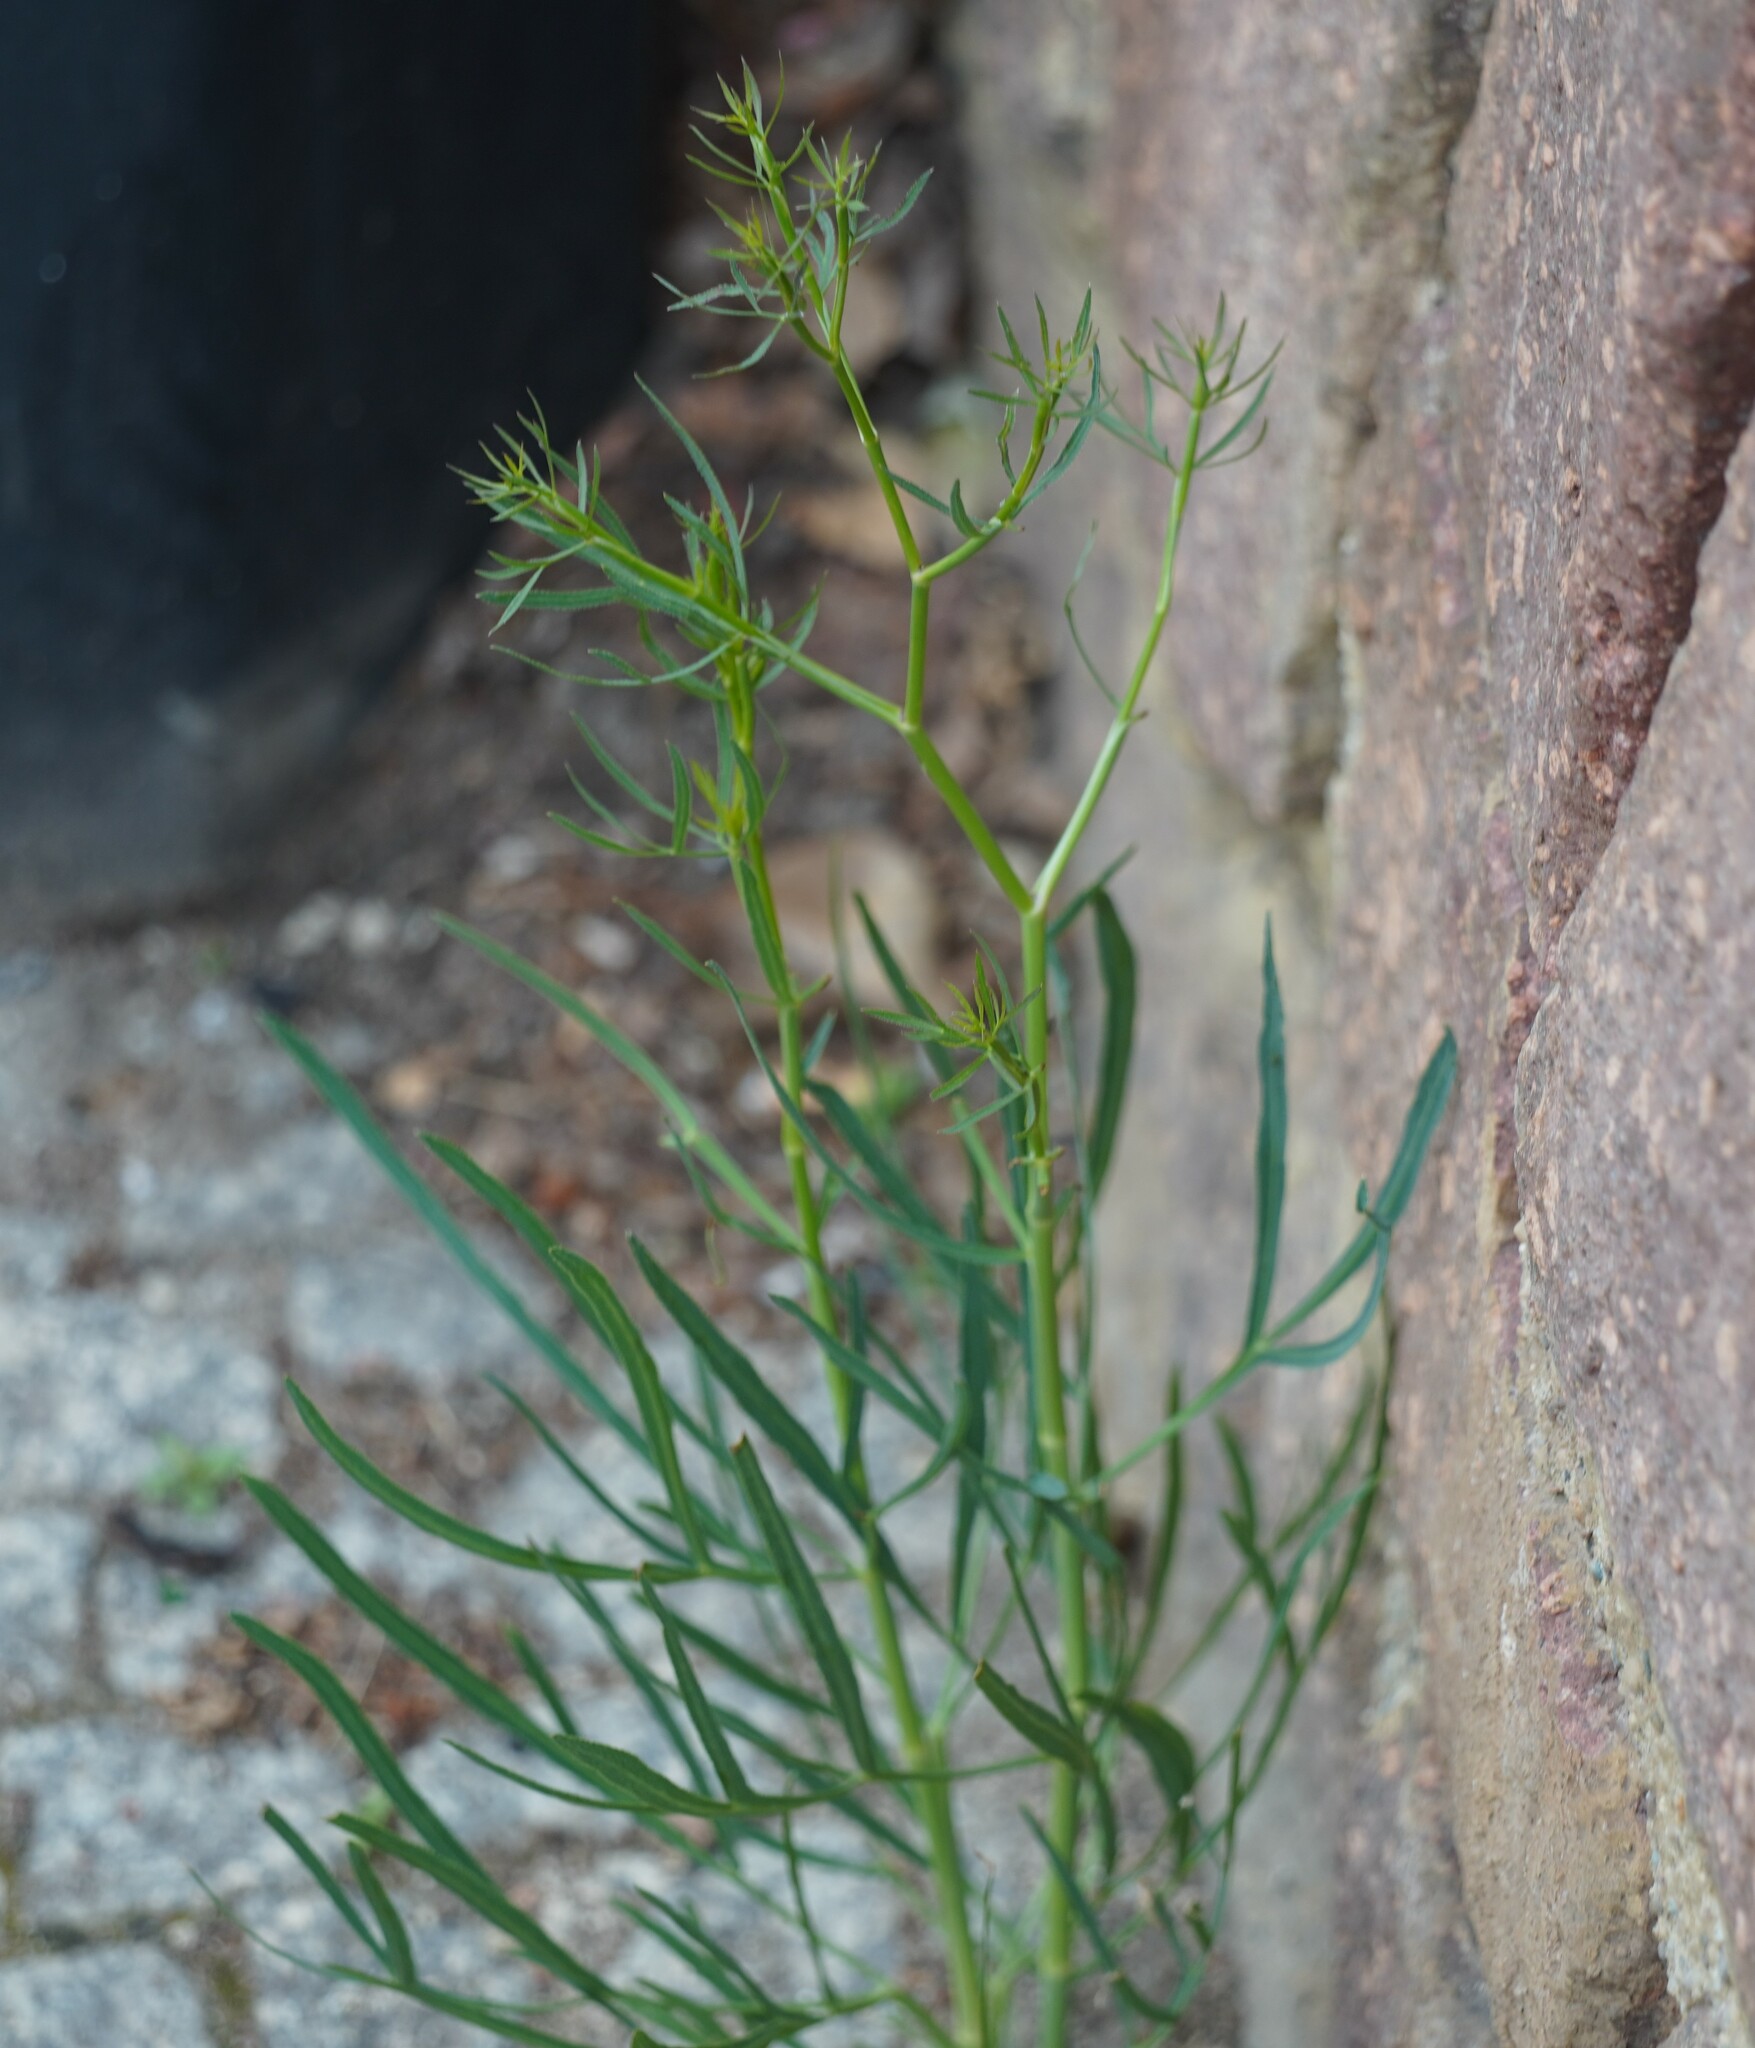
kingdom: Plantae
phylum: Tracheophyta
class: Magnoliopsida
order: Apiales
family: Apiaceae
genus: Falcaria
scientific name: Falcaria vulgaris
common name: Longleaf
